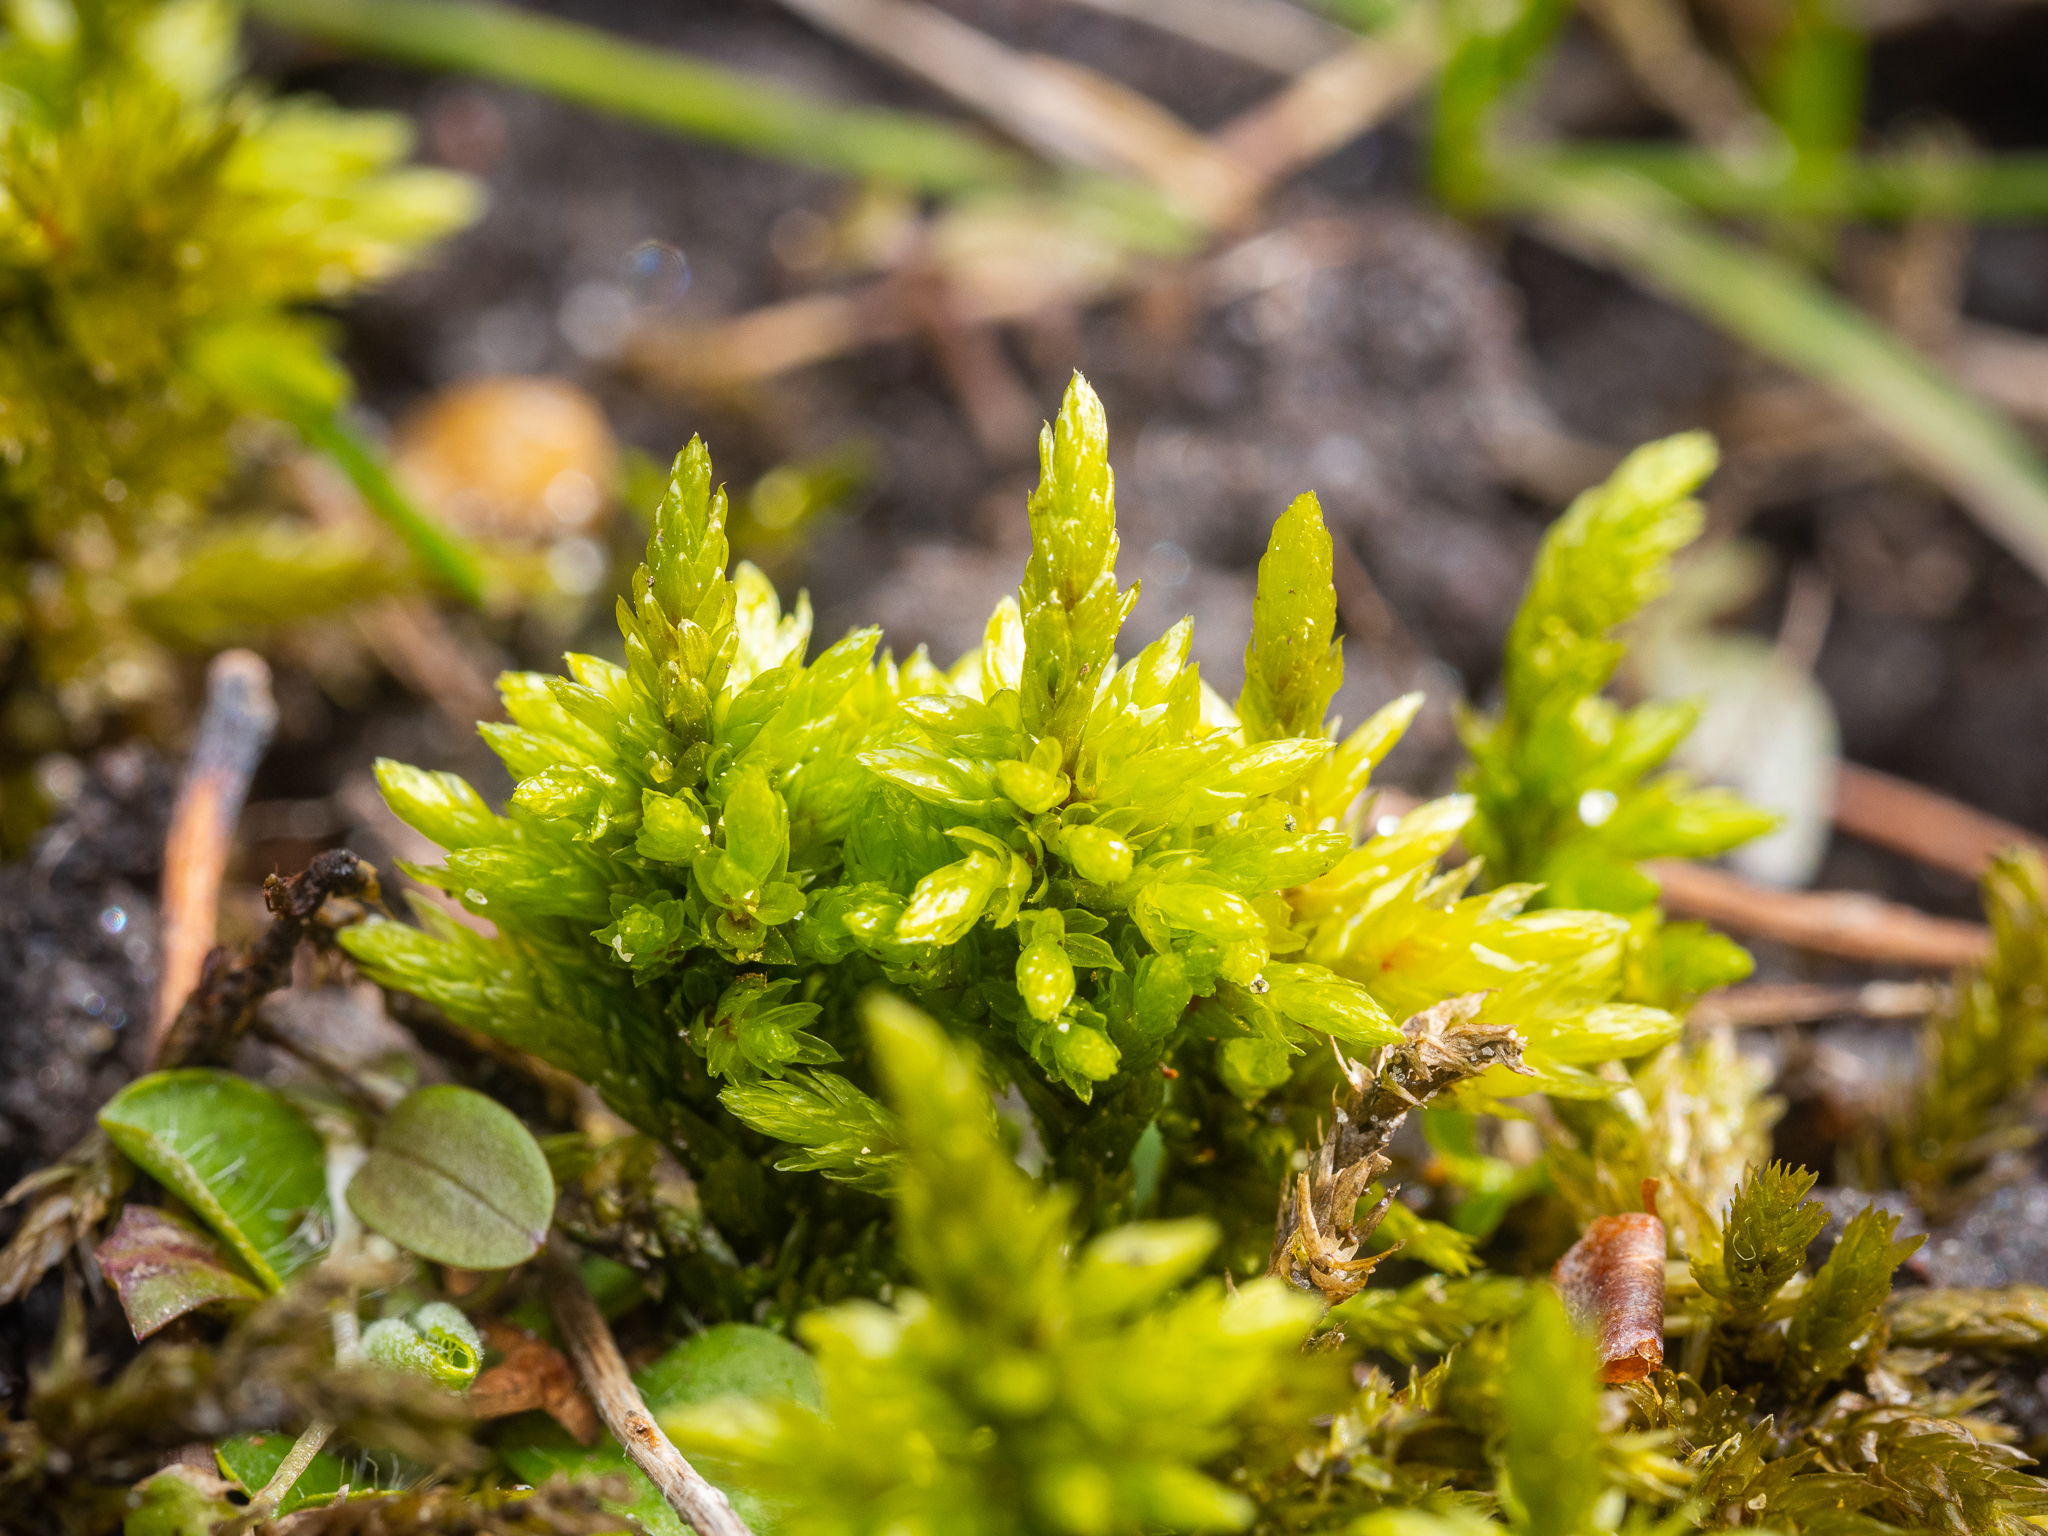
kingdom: Plantae
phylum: Bryophyta
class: Bryopsida
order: Hypnales
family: Climaciaceae
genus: Climacium
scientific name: Climacium dendroides
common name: Northern tree moss
